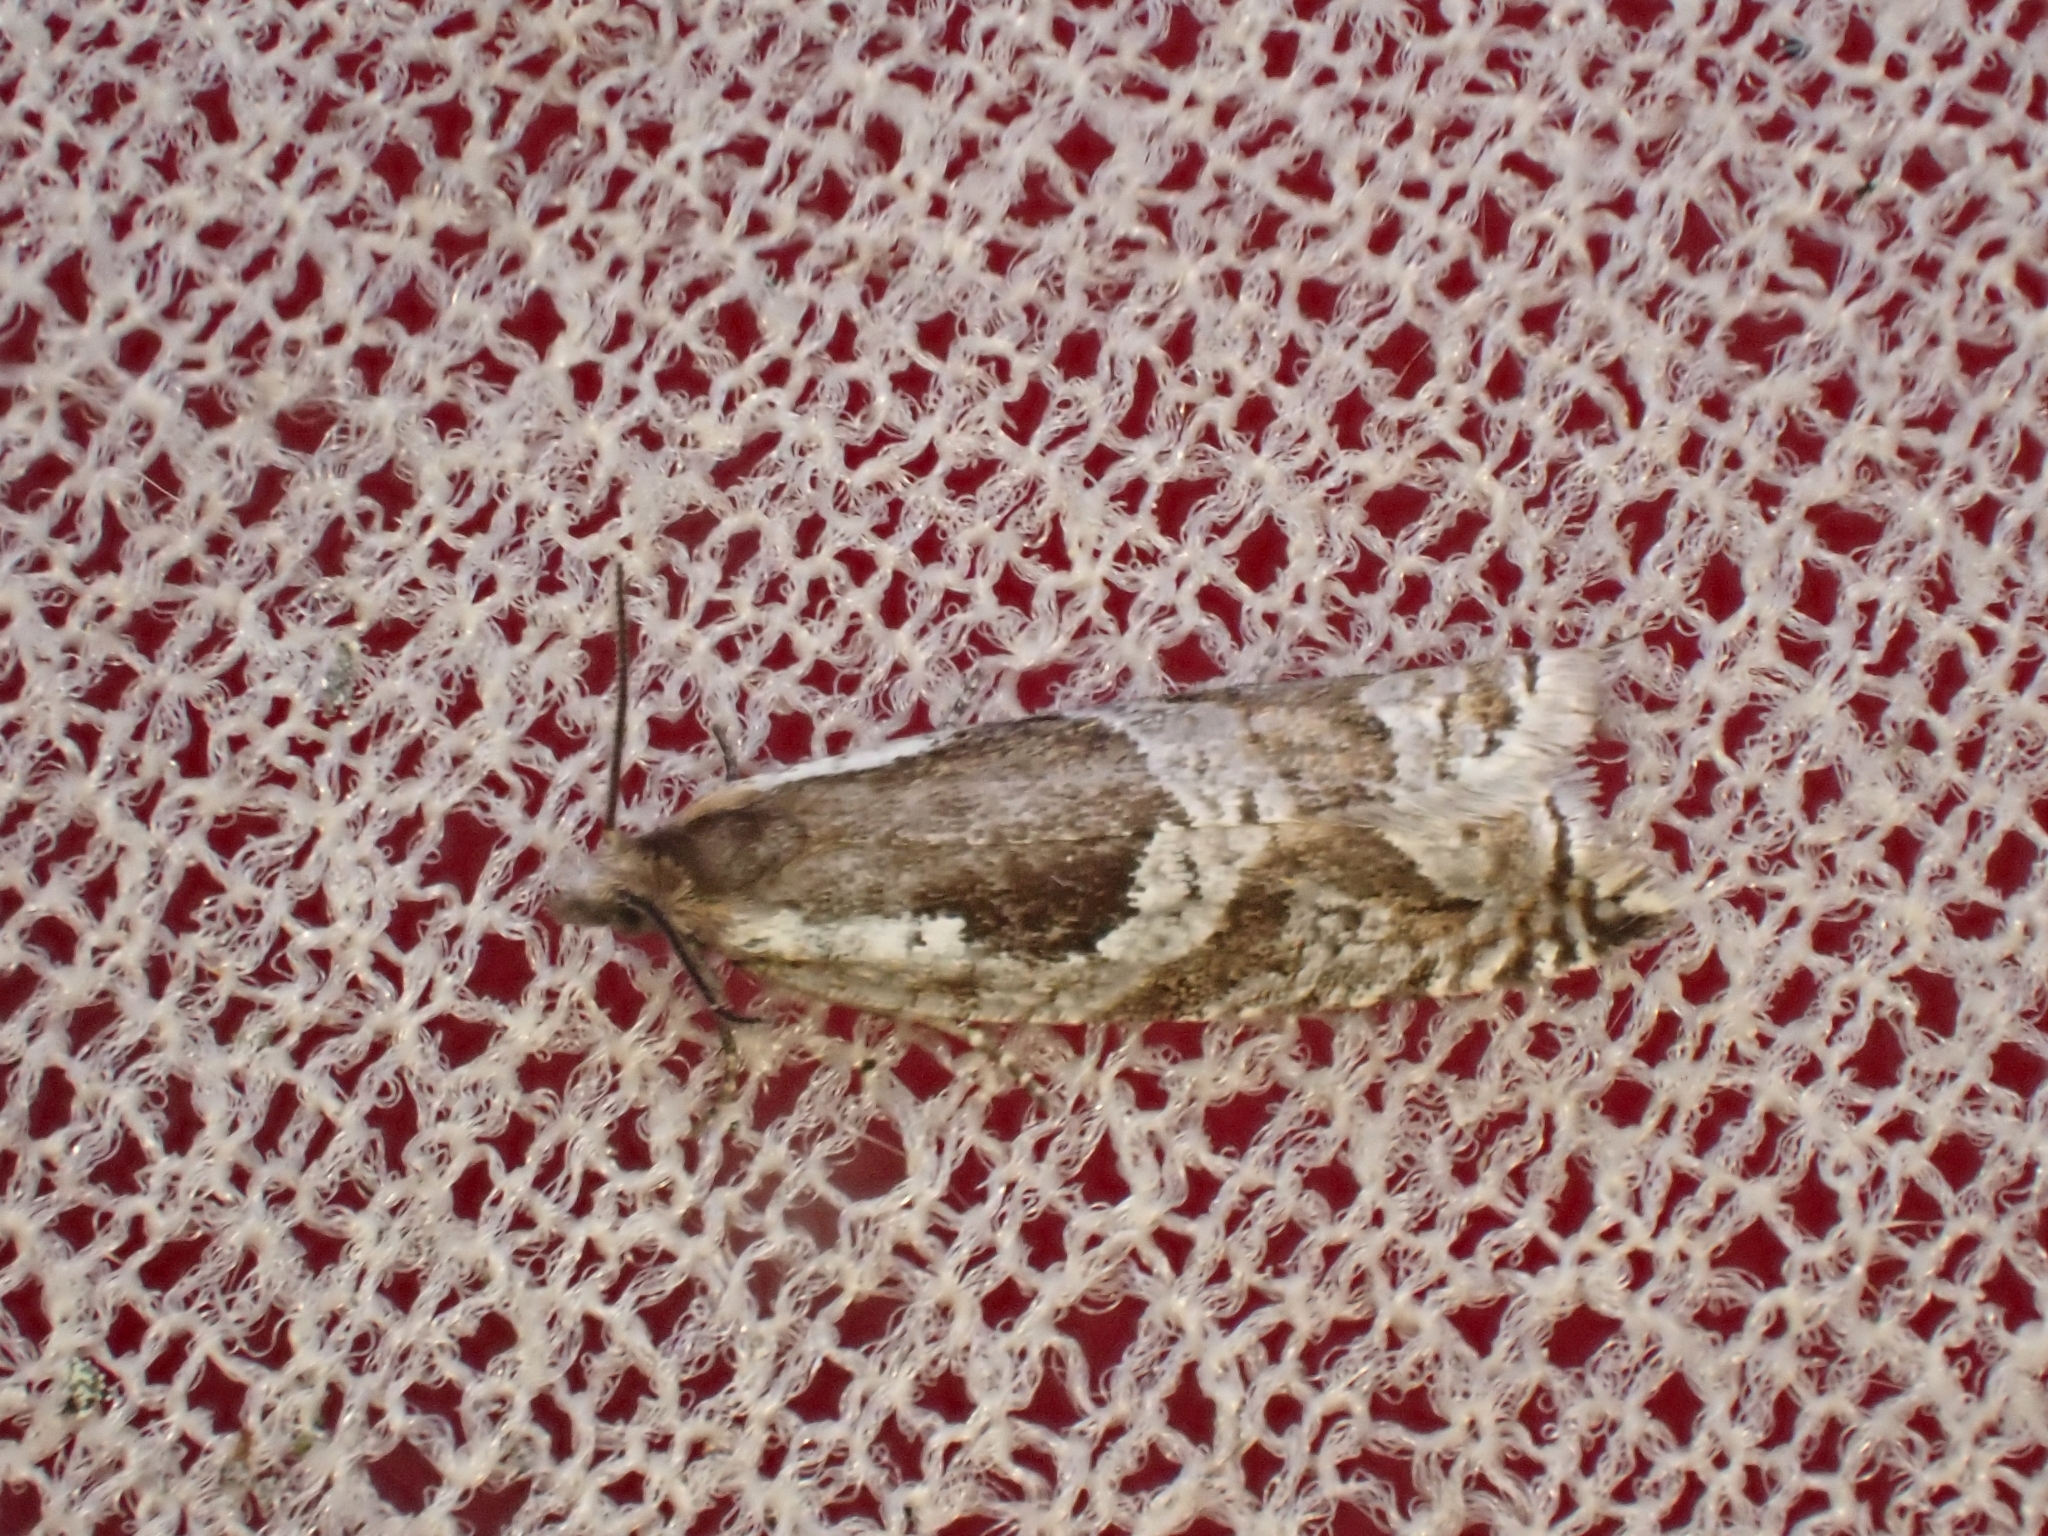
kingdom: Animalia
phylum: Arthropoda
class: Insecta
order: Lepidoptera
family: Tortricidae
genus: Ancylis
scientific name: Ancylis myrtillana
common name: Bilberry roller
